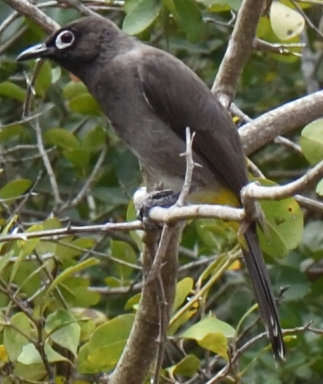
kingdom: Animalia
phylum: Chordata
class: Aves
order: Passeriformes
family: Pycnonotidae
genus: Pycnonotus
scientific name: Pycnonotus capensis
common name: Cape bulbul
